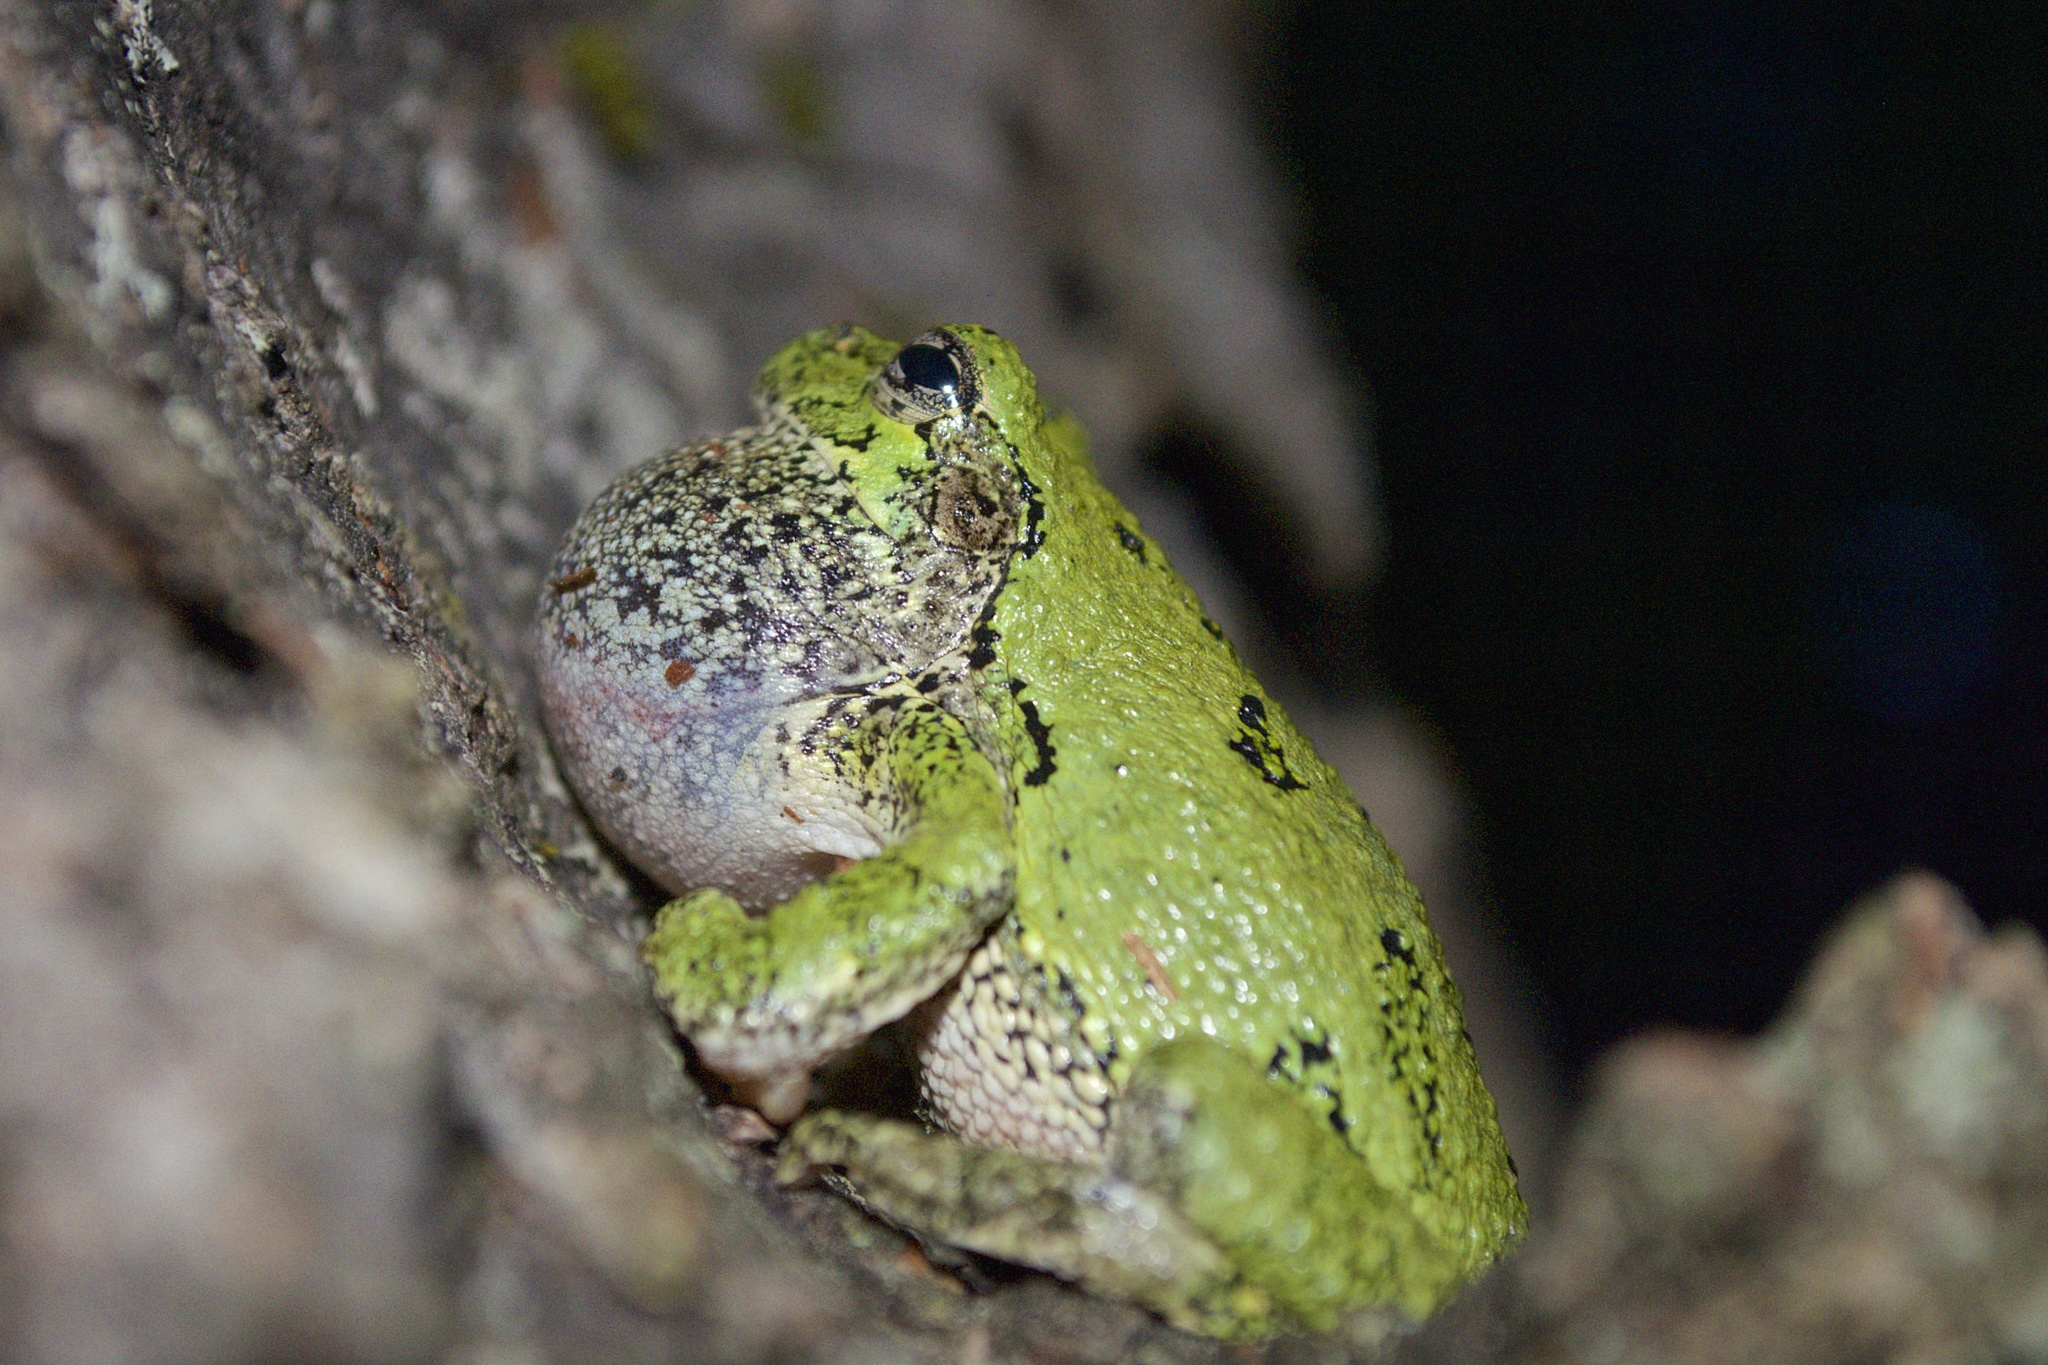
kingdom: Animalia
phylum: Chordata
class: Amphibia
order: Anura
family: Hylidae
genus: Dryophytes
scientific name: Dryophytes versicolor
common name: Gray treefrog
